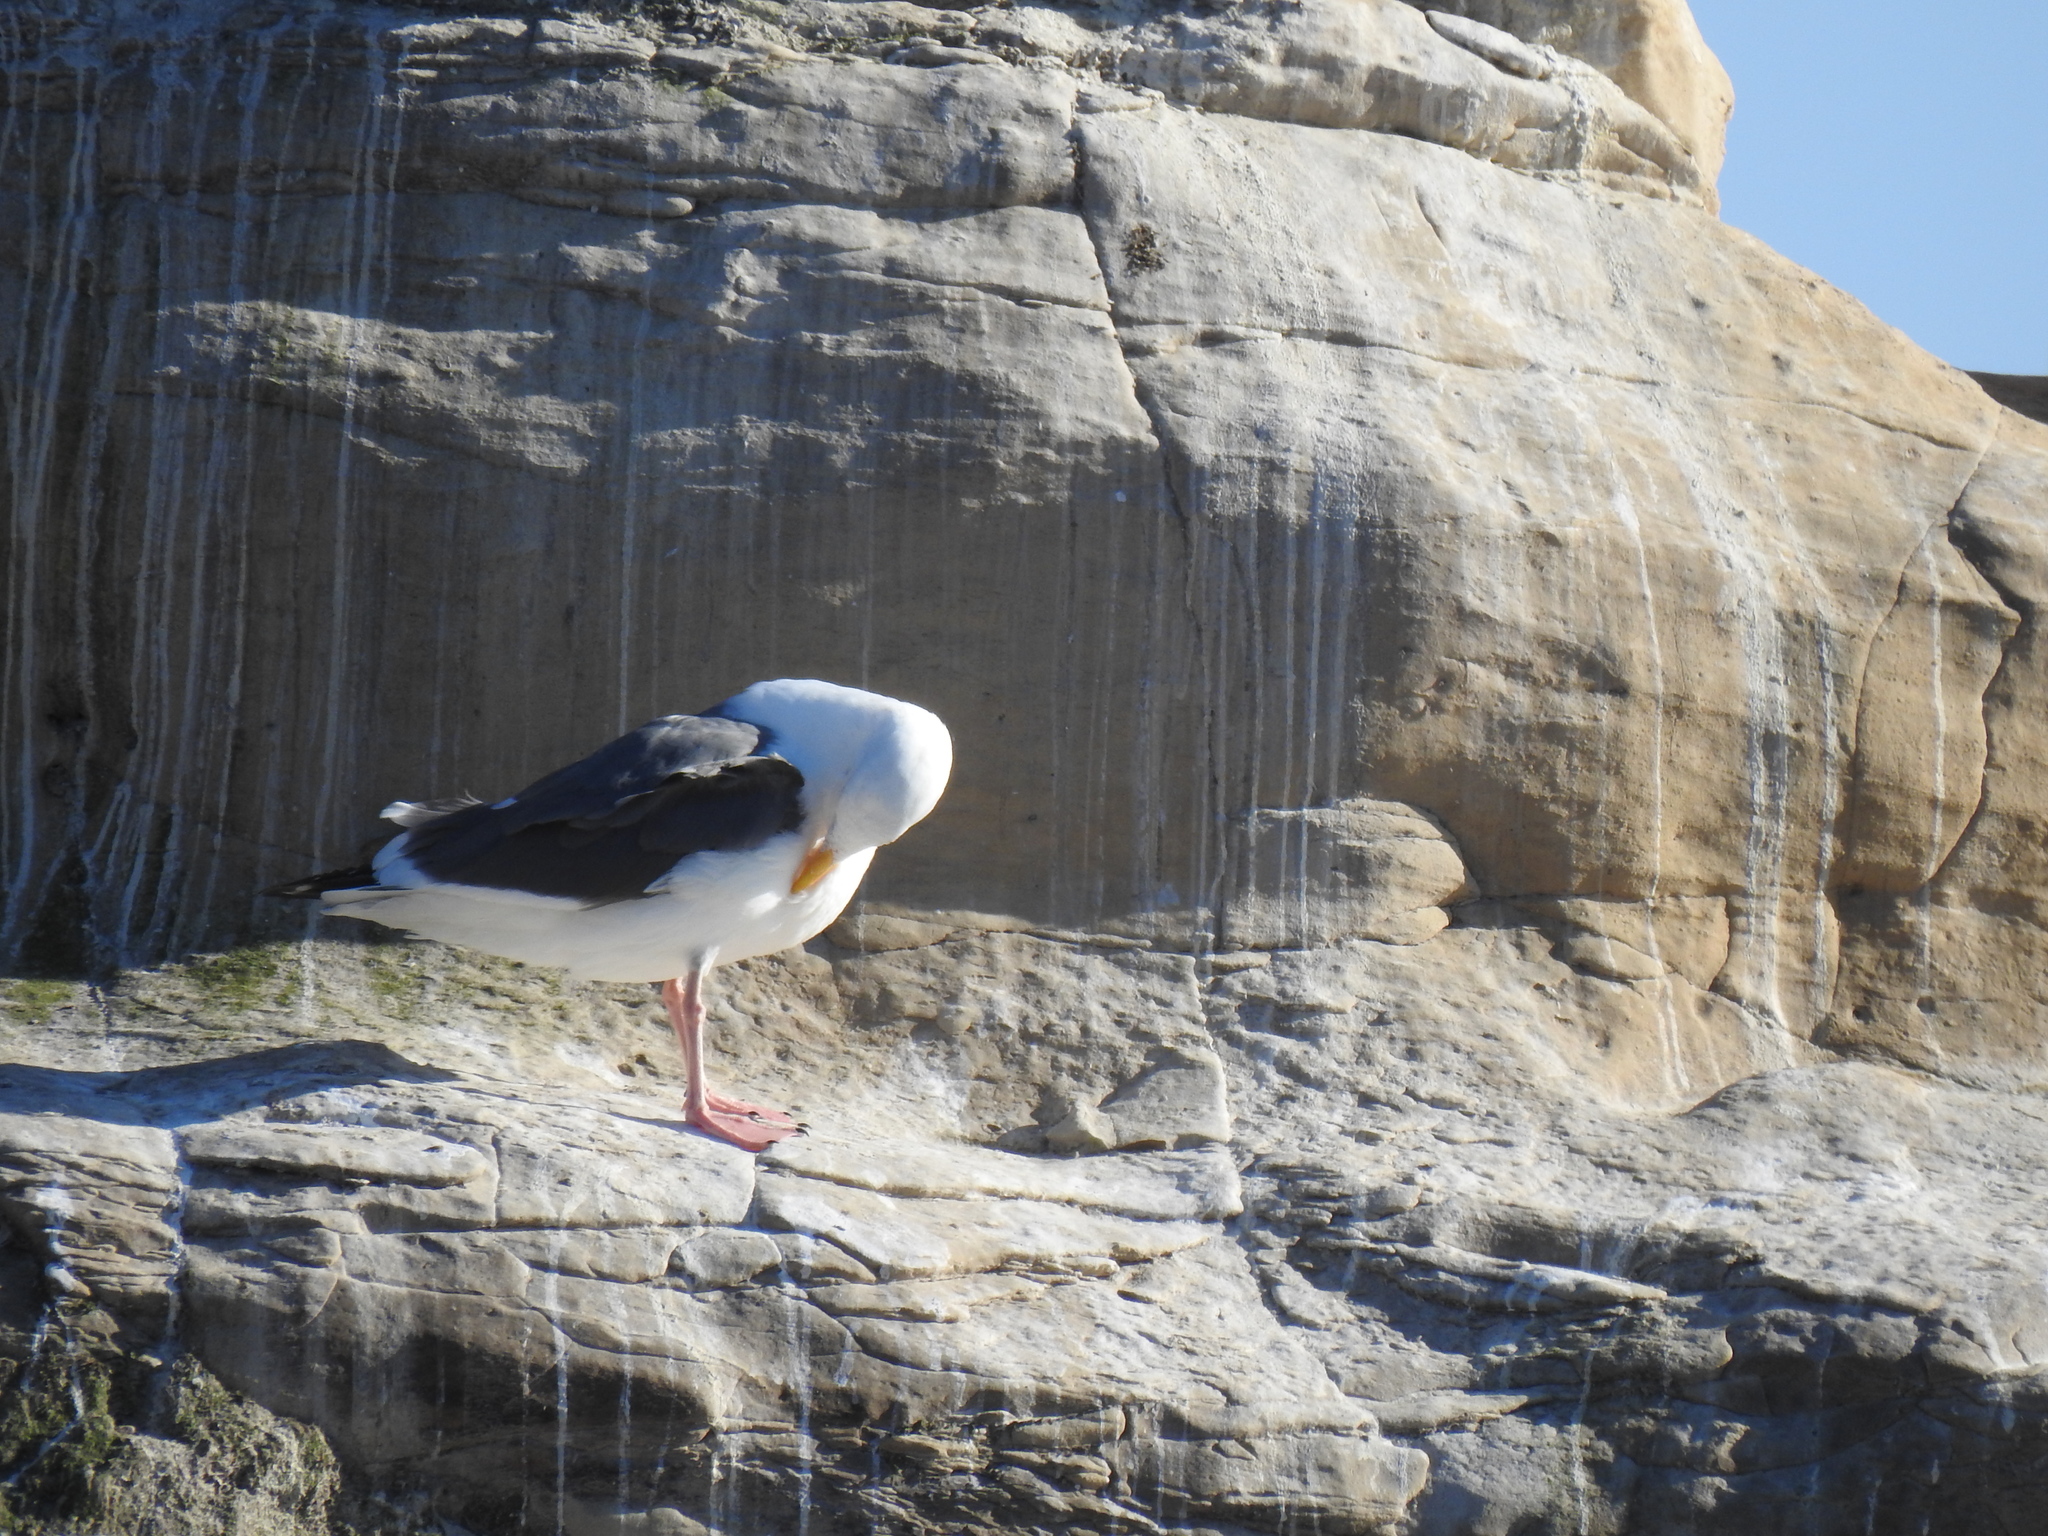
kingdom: Animalia
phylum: Chordata
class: Aves
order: Charadriiformes
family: Laridae
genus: Larus
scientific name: Larus occidentalis
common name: Western gull
